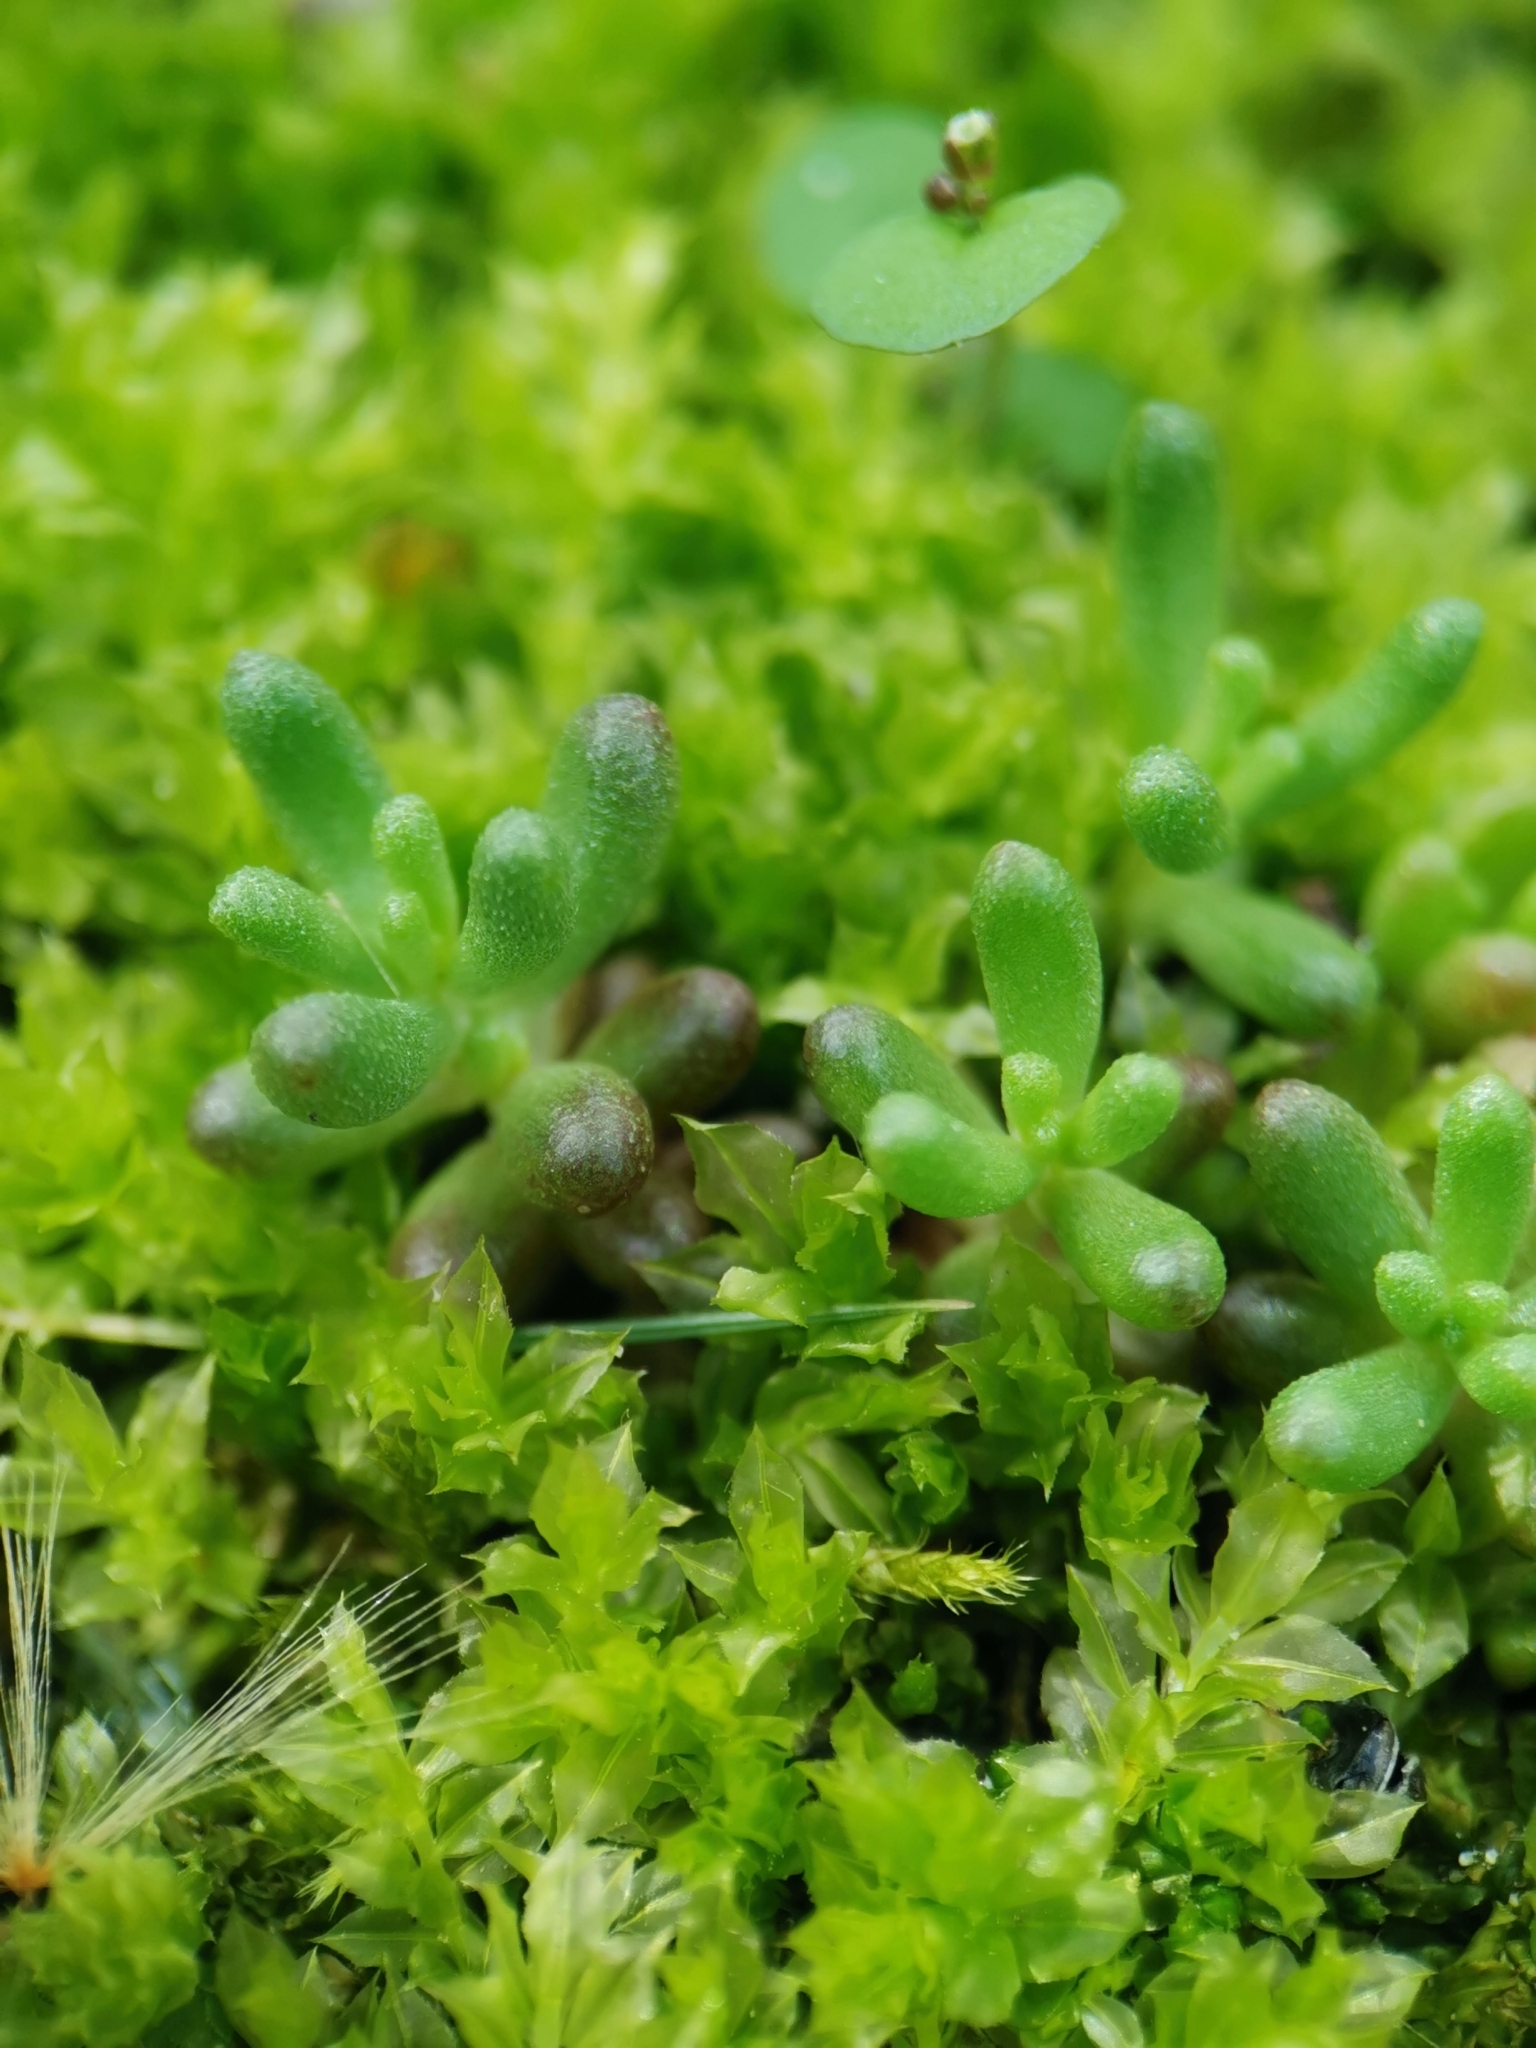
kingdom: Plantae
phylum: Tracheophyta
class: Magnoliopsida
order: Saxifragales
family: Crassulaceae
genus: Sedum
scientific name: Sedum album
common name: White stonecrop
